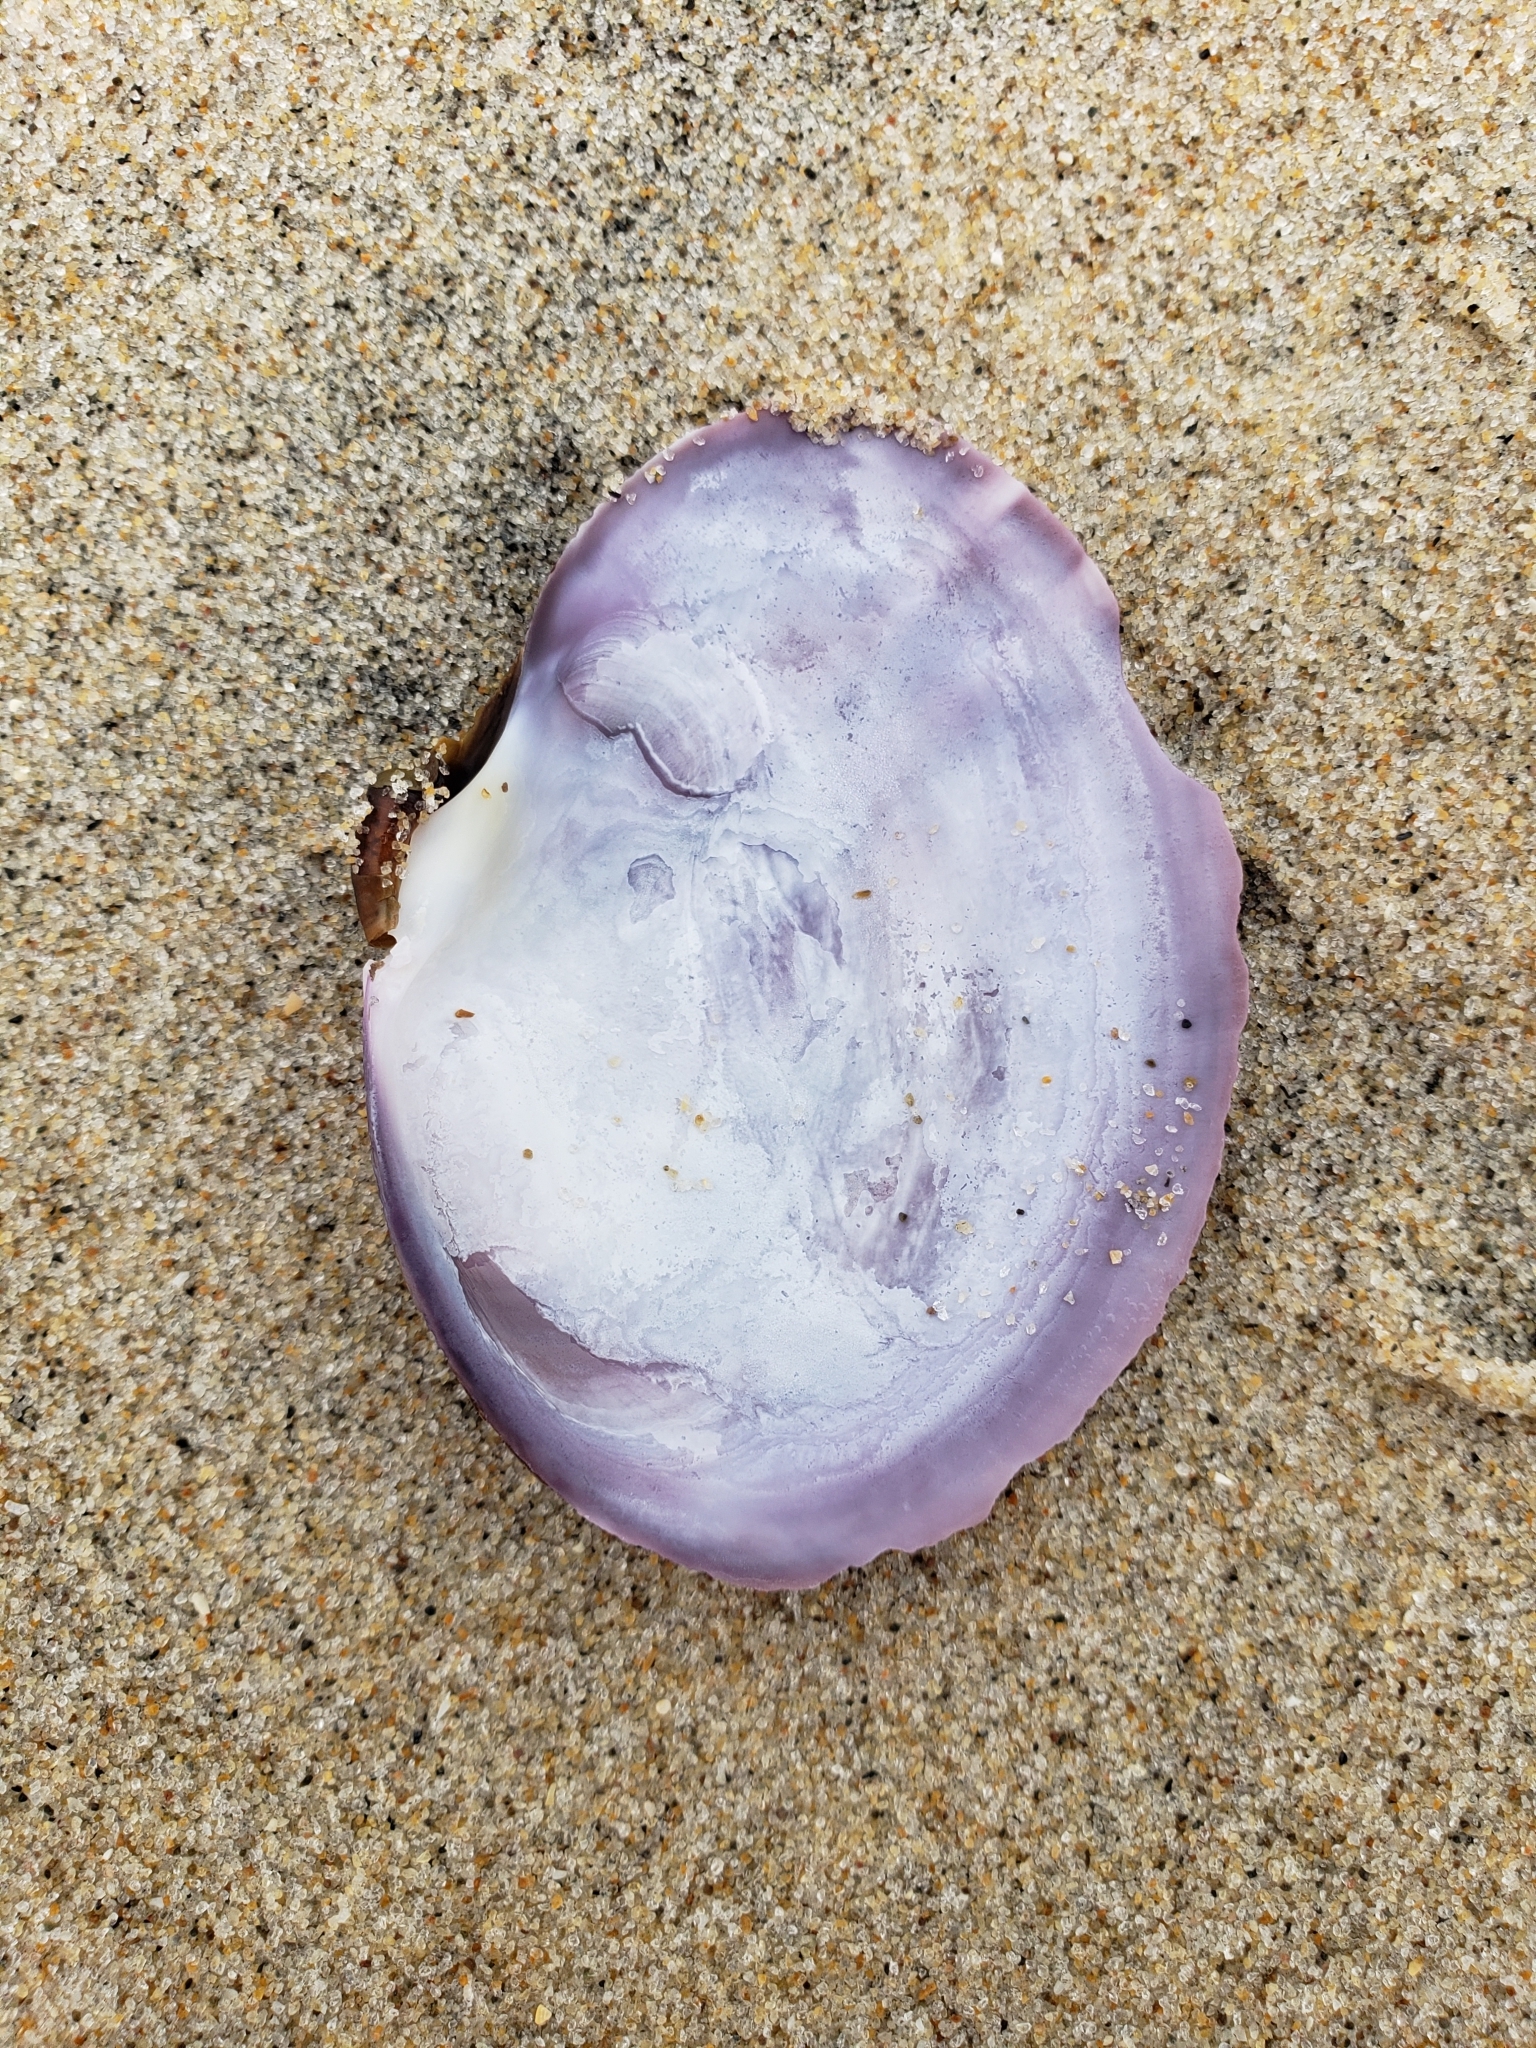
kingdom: Animalia
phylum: Mollusca
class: Bivalvia
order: Cardiida
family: Psammobiidae
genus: Nuttallia
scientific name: Nuttallia nuttallii
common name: California mahogany-clam
